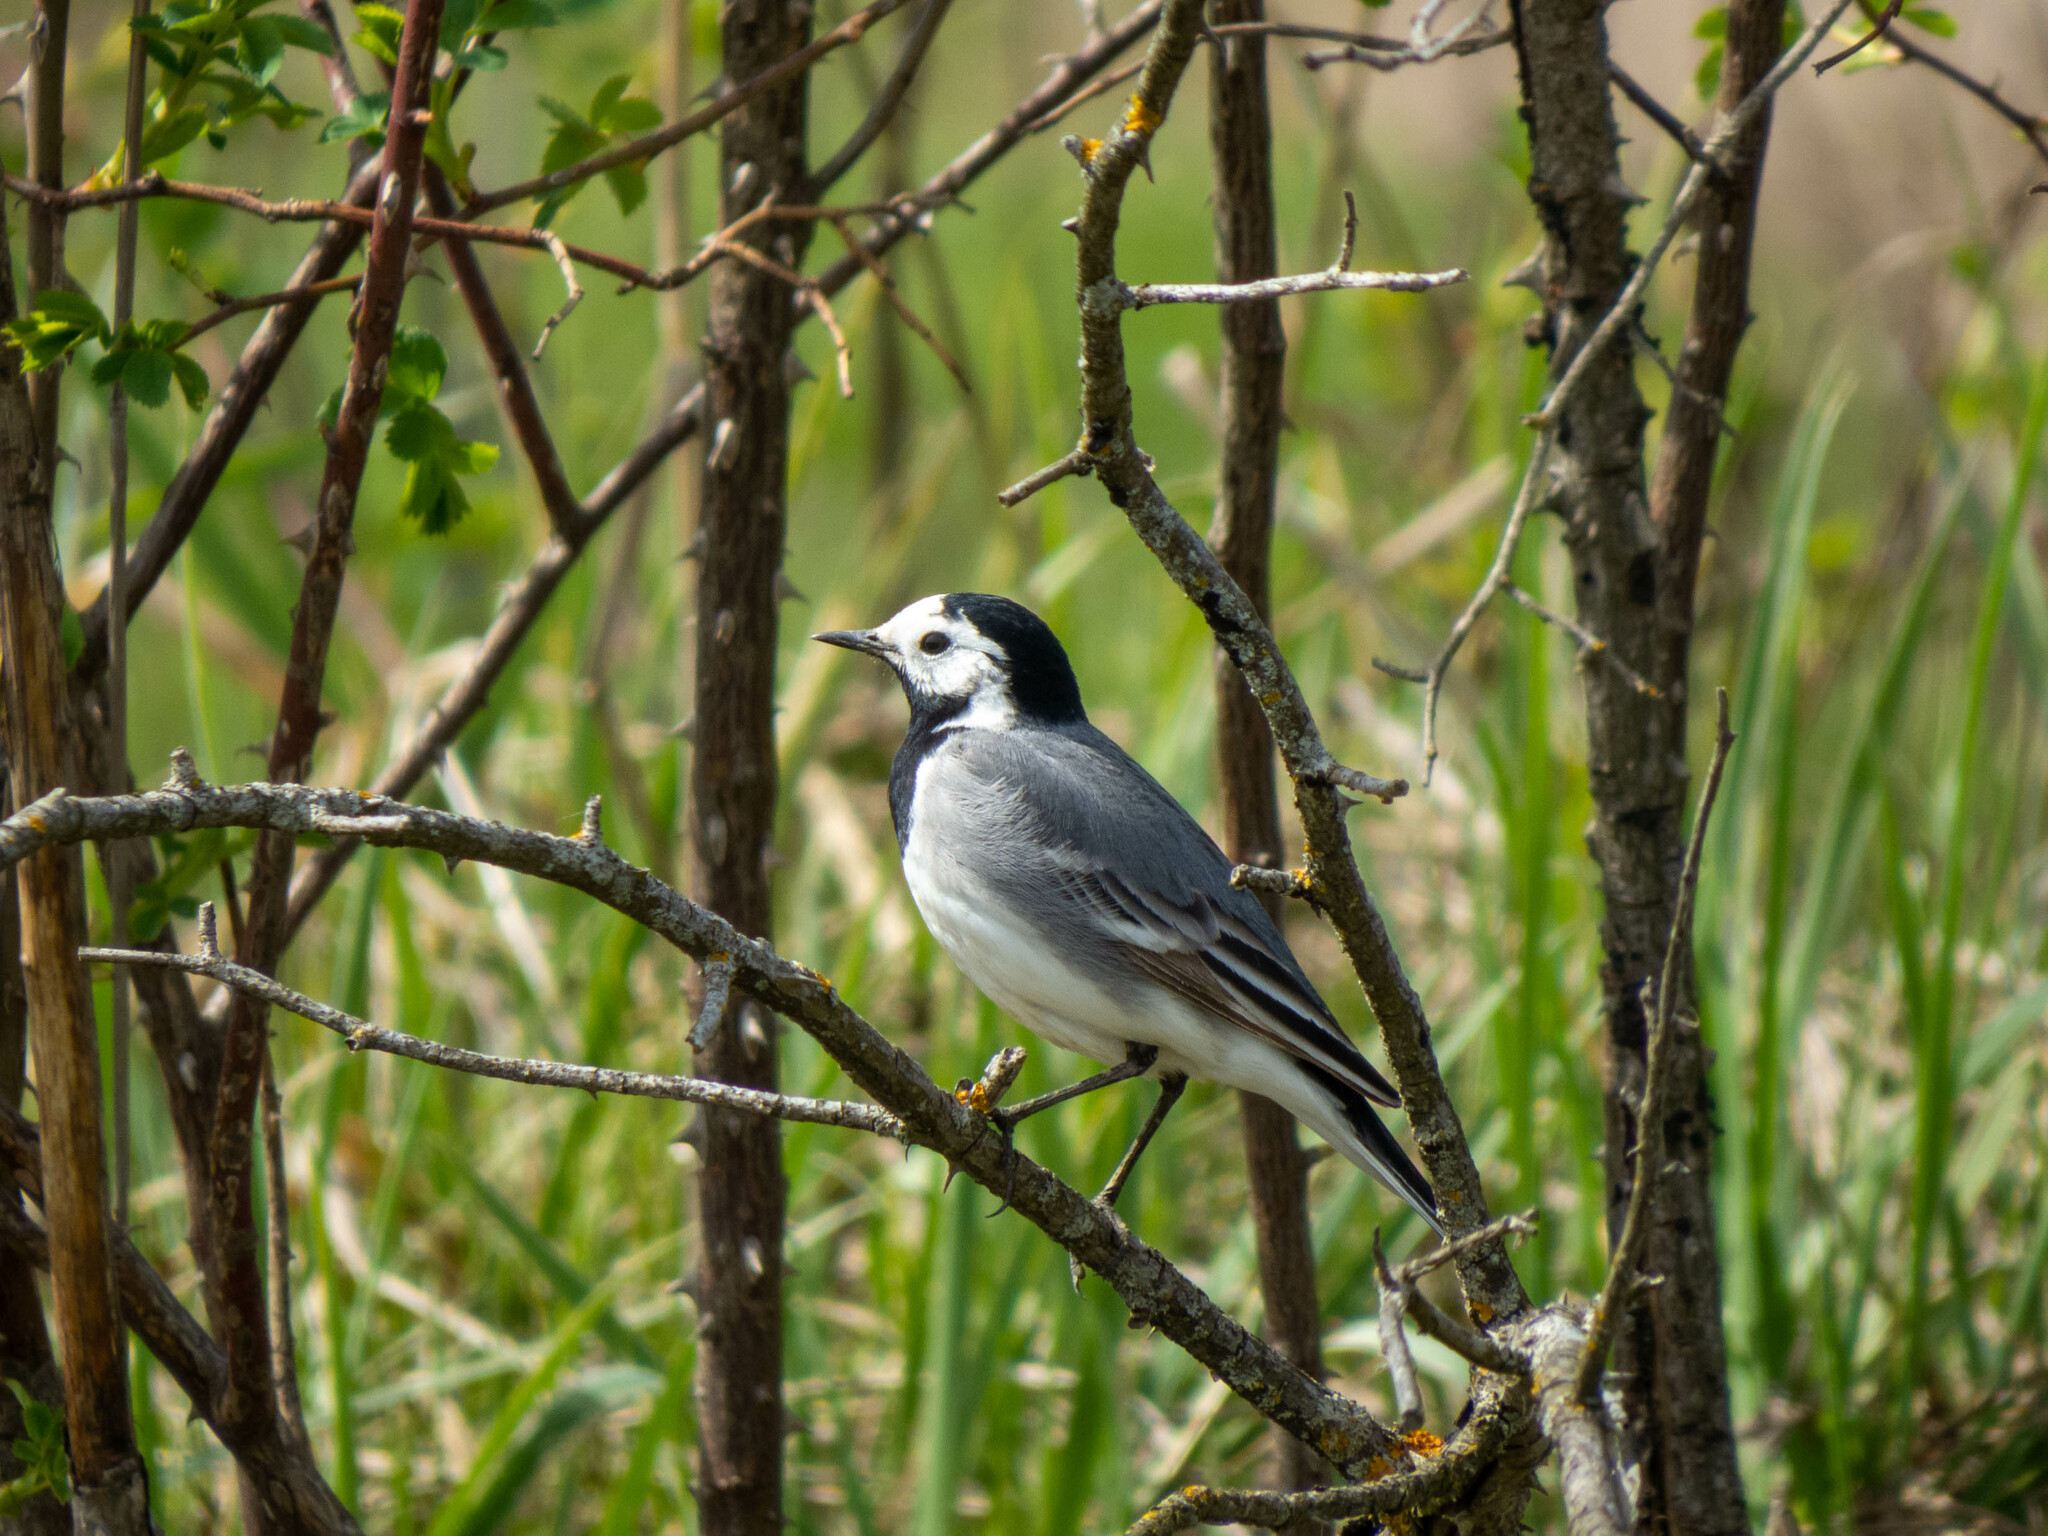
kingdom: Animalia
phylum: Chordata
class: Aves
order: Passeriformes
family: Motacillidae
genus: Motacilla
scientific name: Motacilla alba
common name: White wagtail
